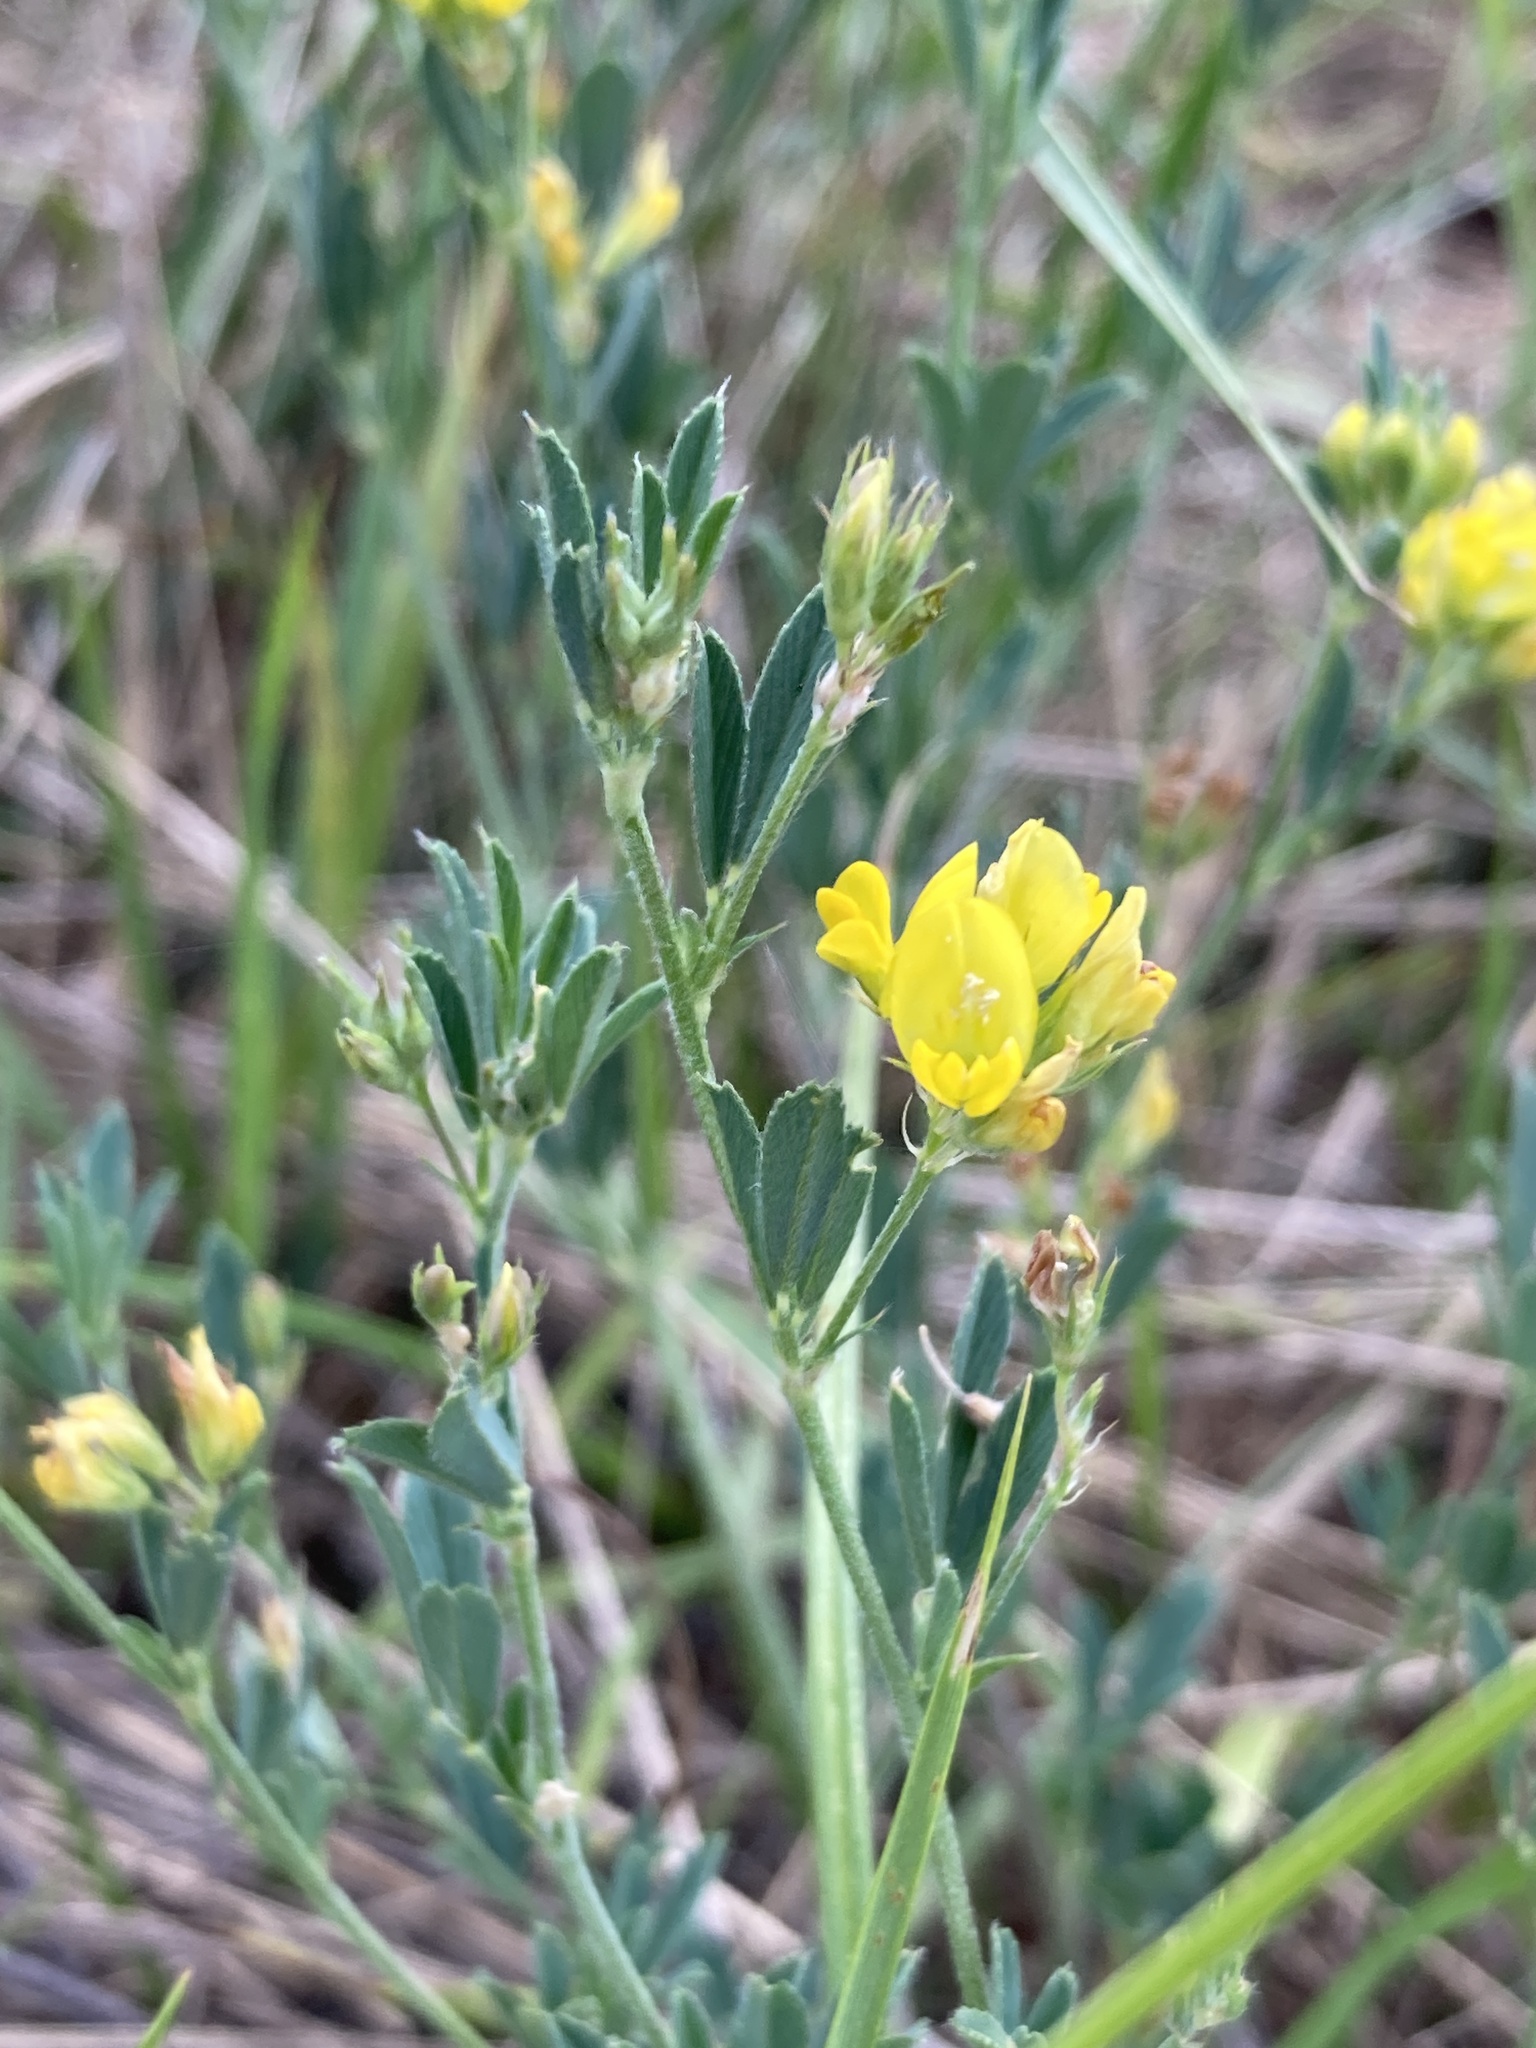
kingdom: Plantae
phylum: Tracheophyta
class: Magnoliopsida
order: Fabales
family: Fabaceae
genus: Medicago
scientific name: Medicago falcata
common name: Sickle medick
